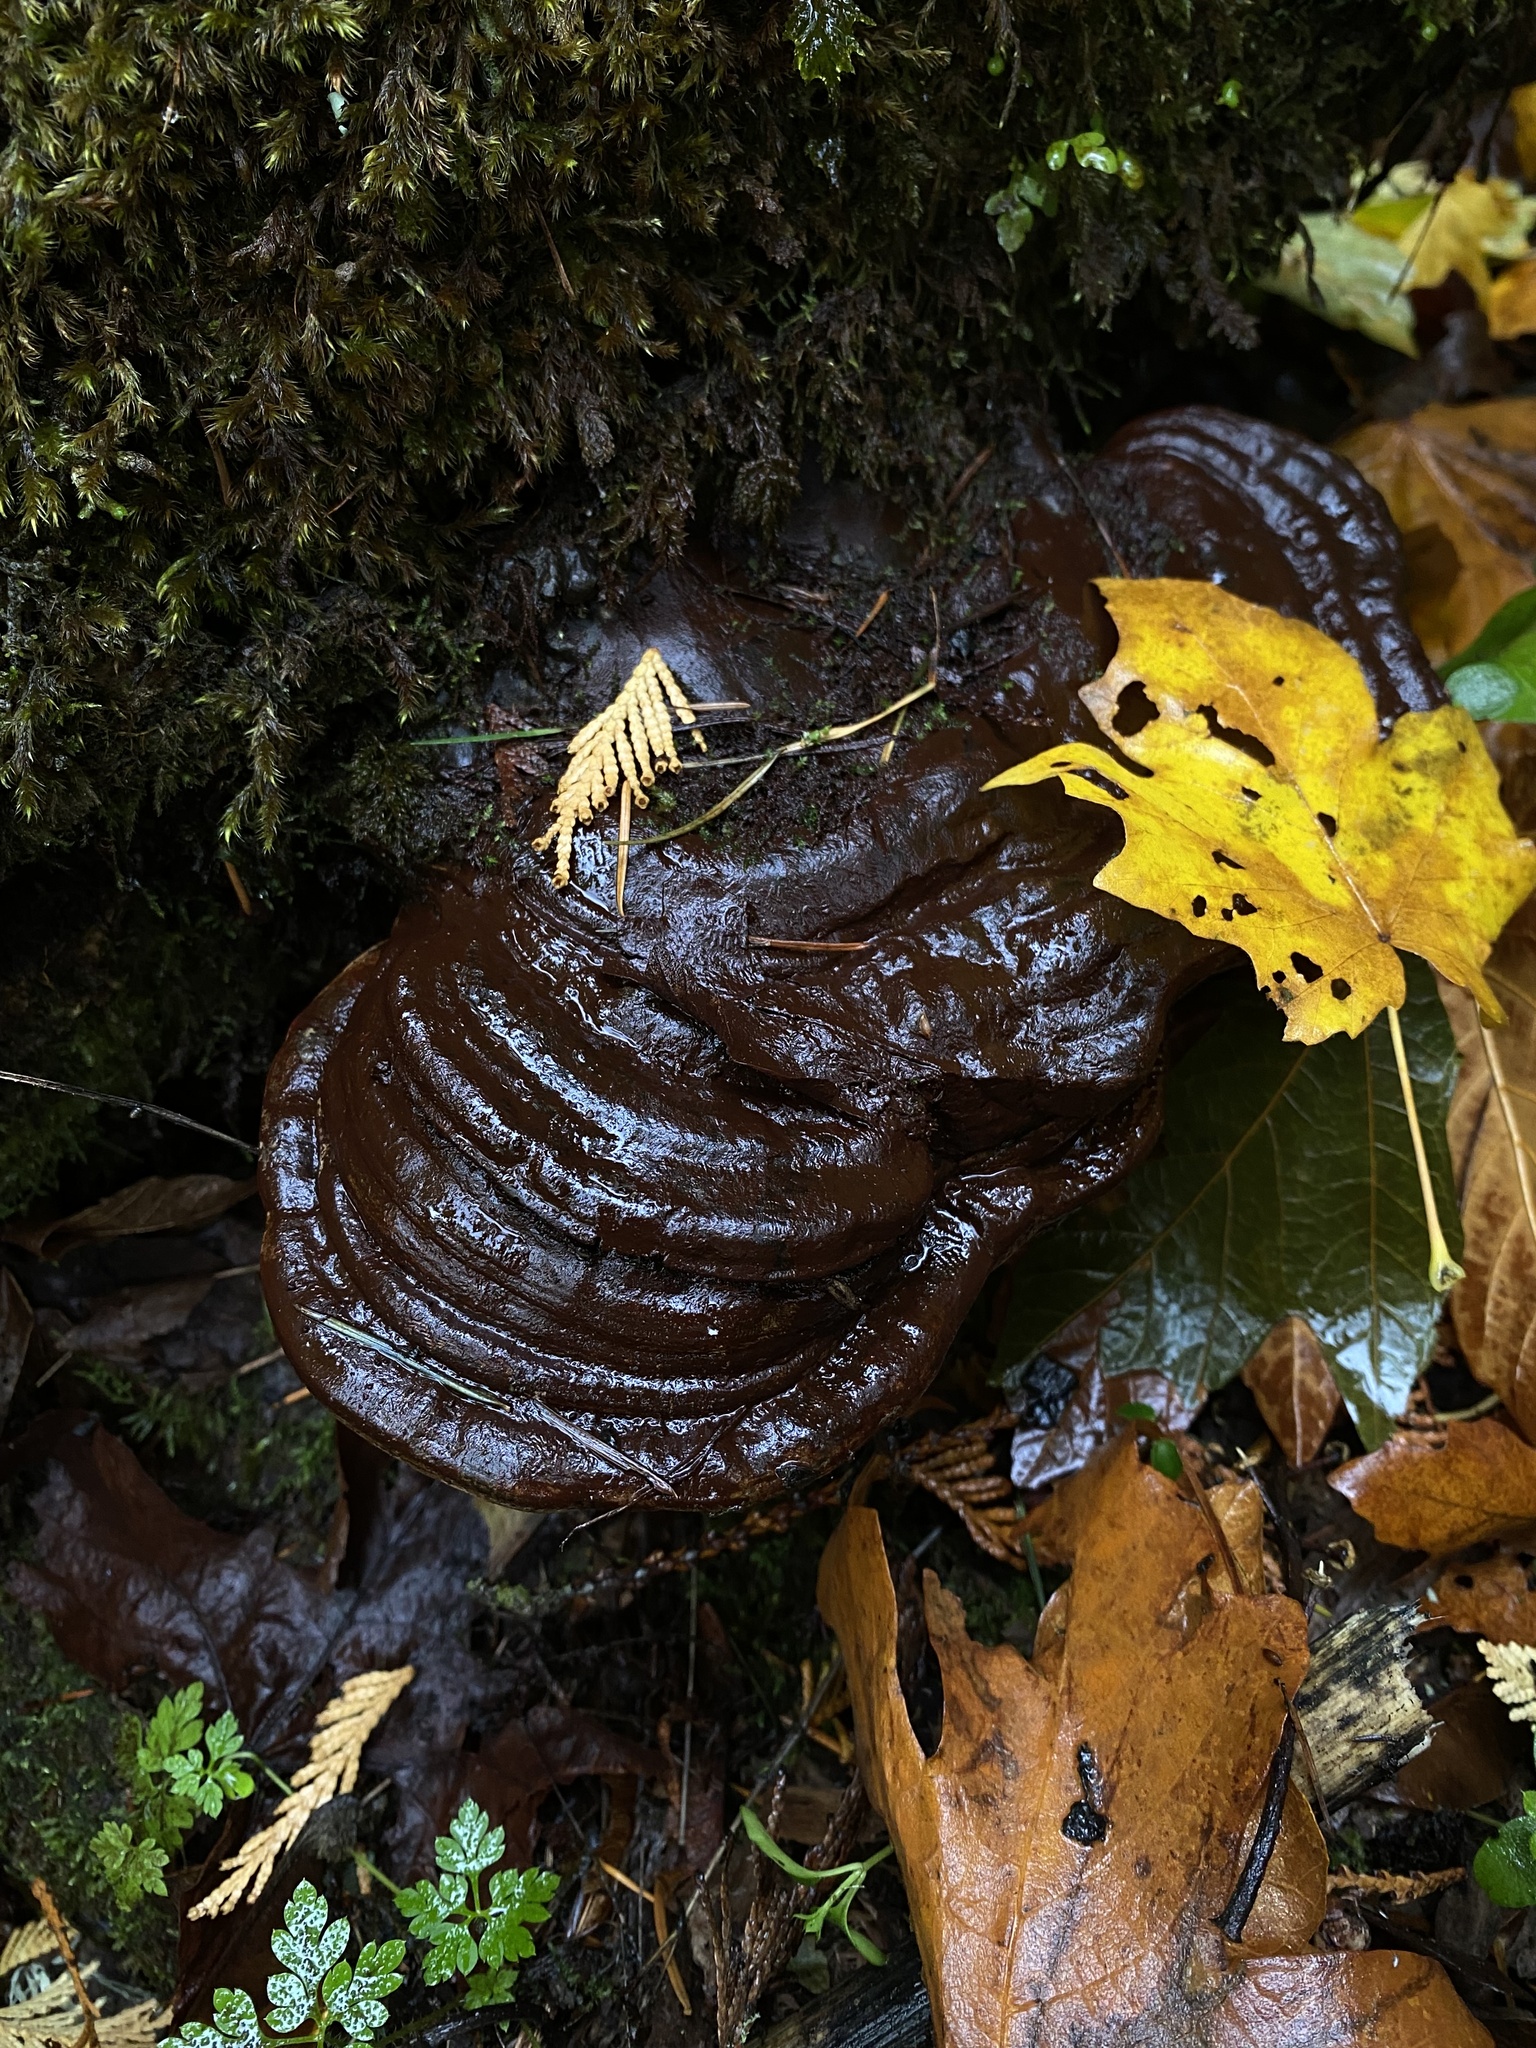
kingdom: Fungi
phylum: Basidiomycota
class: Agaricomycetes
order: Polyporales
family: Polyporaceae
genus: Ganoderma
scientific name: Ganoderma oregonense
